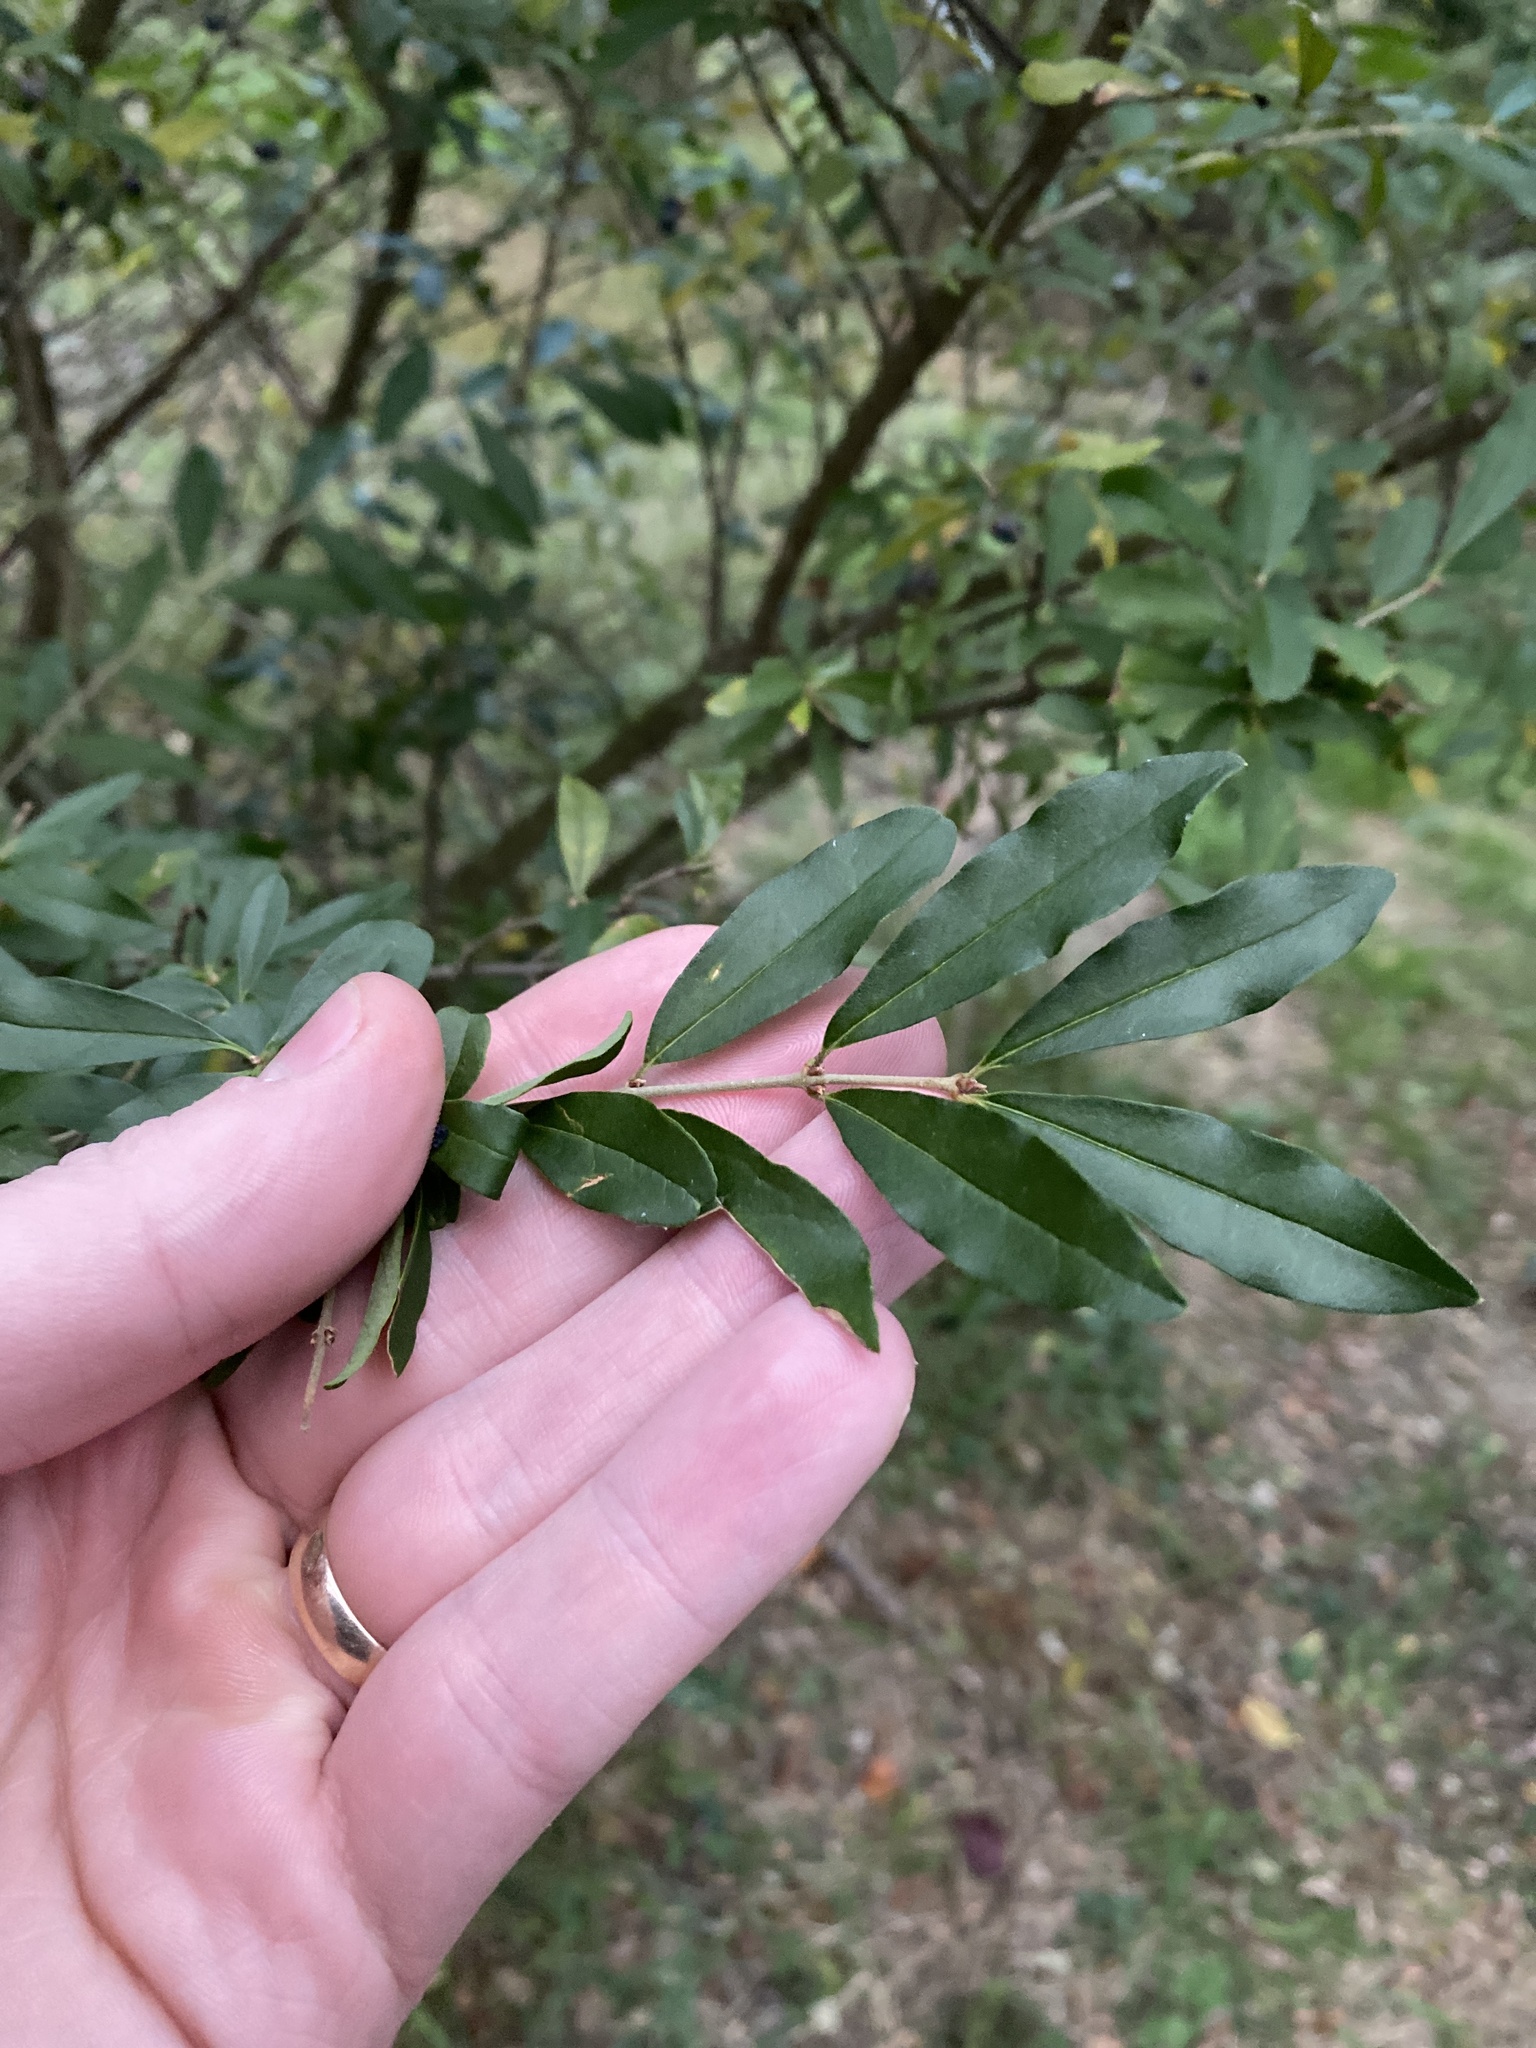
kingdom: Plantae
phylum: Tracheophyta
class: Magnoliopsida
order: Lamiales
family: Oleaceae
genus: Ligustrum
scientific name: Ligustrum obtusifolium
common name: Border privet
